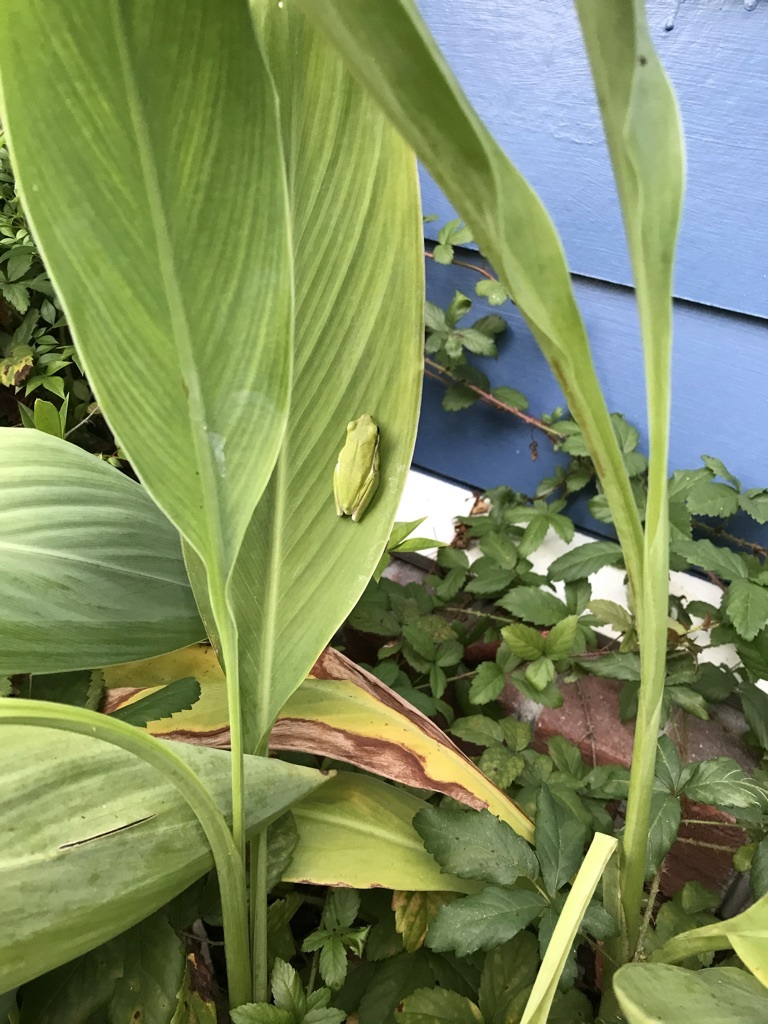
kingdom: Animalia
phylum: Chordata
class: Amphibia
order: Anura
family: Hylidae
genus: Dryophytes
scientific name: Dryophytes cinereus
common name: Green treefrog
